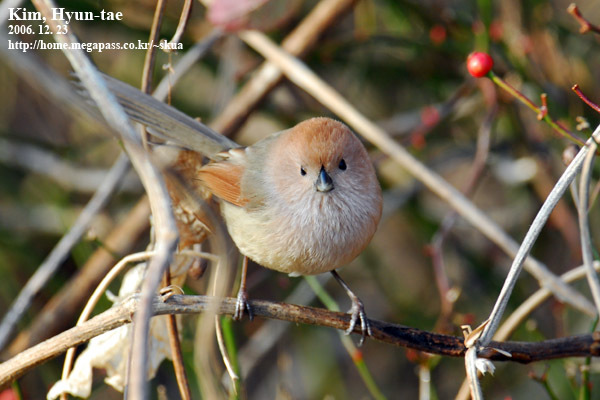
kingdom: Animalia
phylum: Chordata
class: Aves
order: Passeriformes
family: Sylviidae
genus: Sinosuthora
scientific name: Sinosuthora webbiana
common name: Vinous-throated parrotbill
